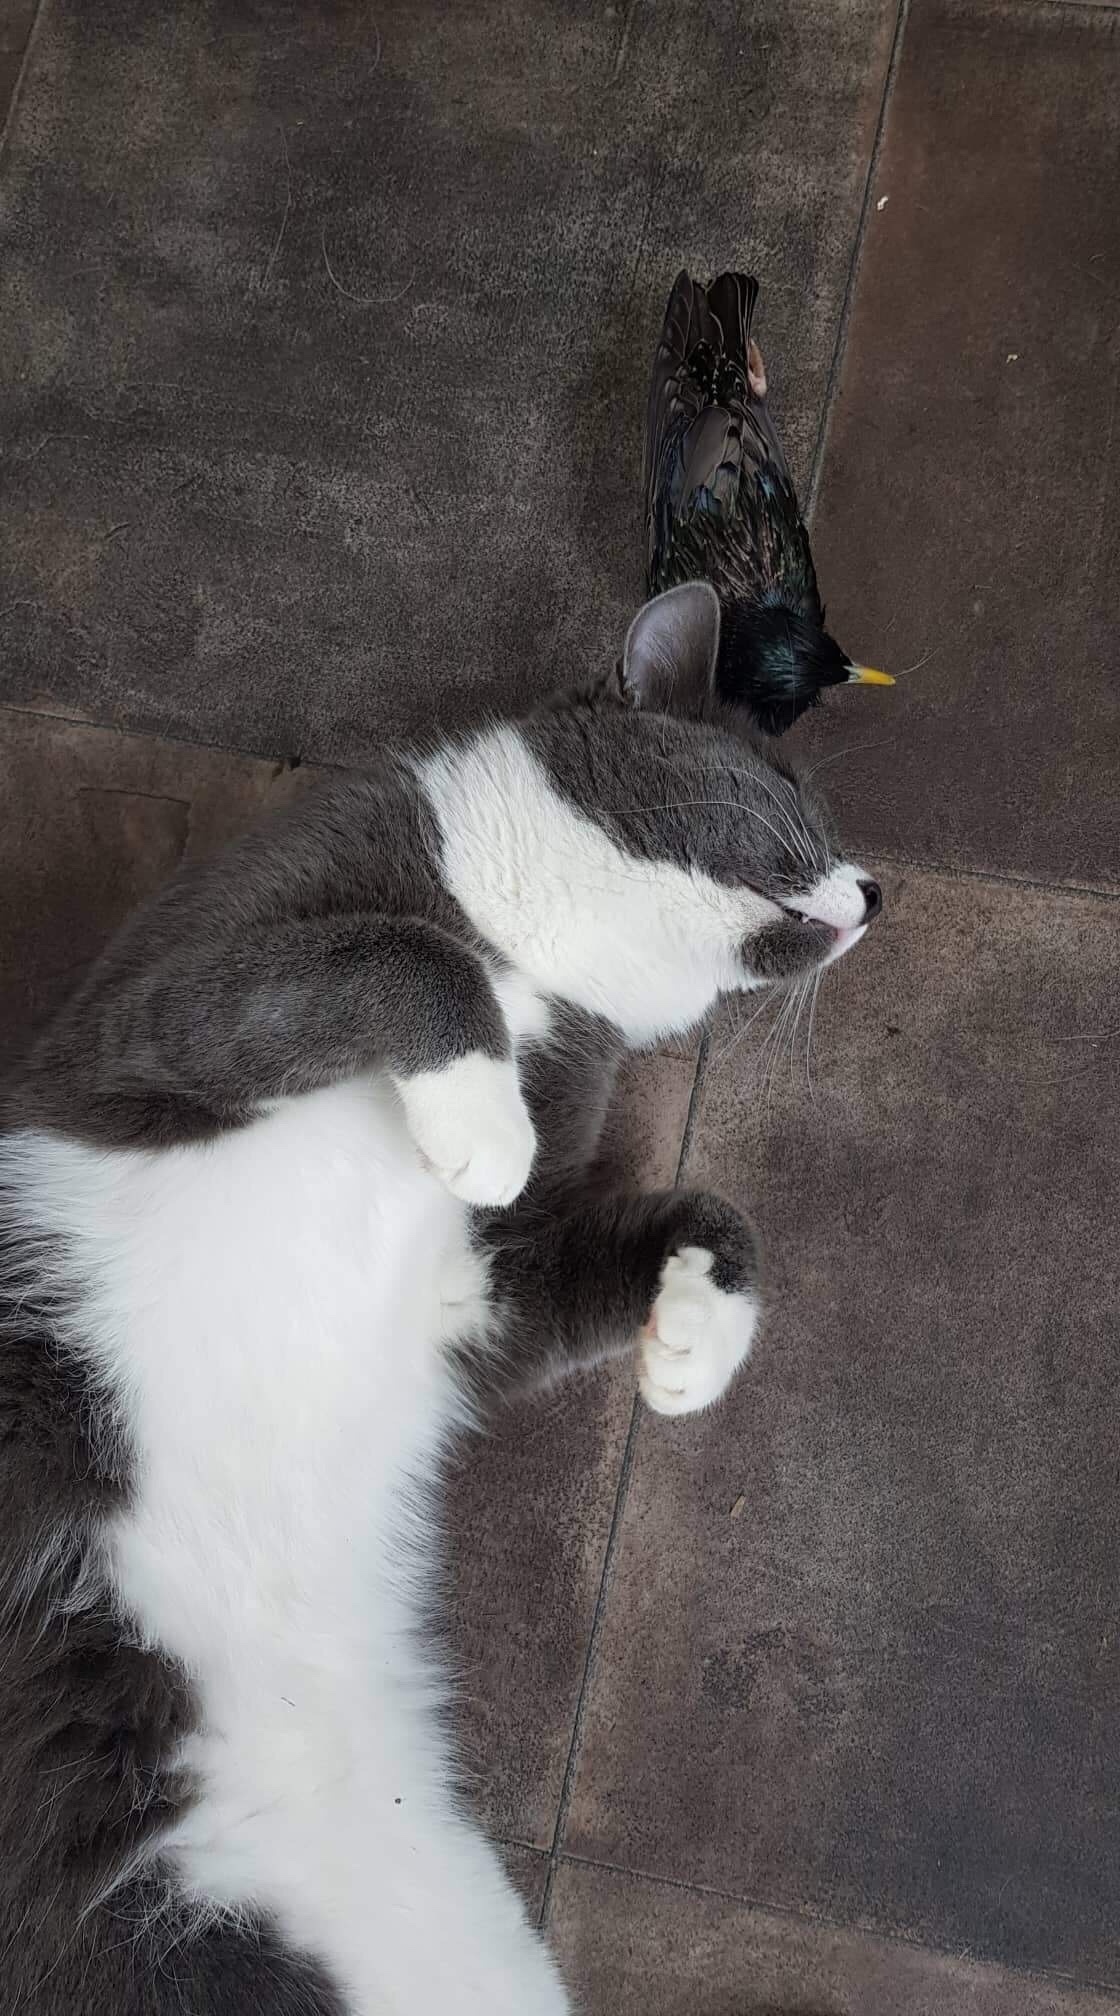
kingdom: Animalia
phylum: Chordata
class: Aves
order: Passeriformes
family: Sturnidae
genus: Sturnus
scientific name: Sturnus vulgaris
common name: Common starling
